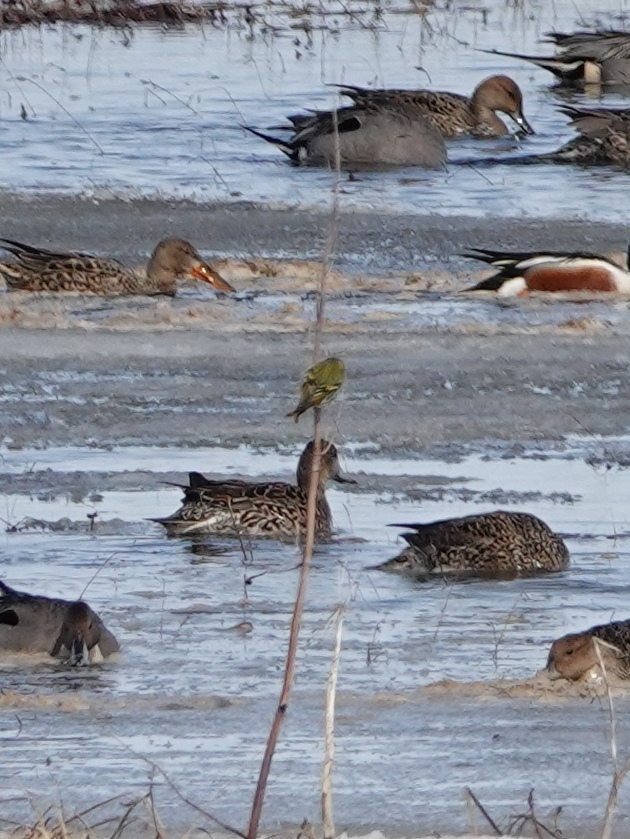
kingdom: Animalia
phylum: Chordata
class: Aves
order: Passeriformes
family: Fringillidae
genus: Spinus
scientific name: Spinus spinus
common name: Eurasian siskin
